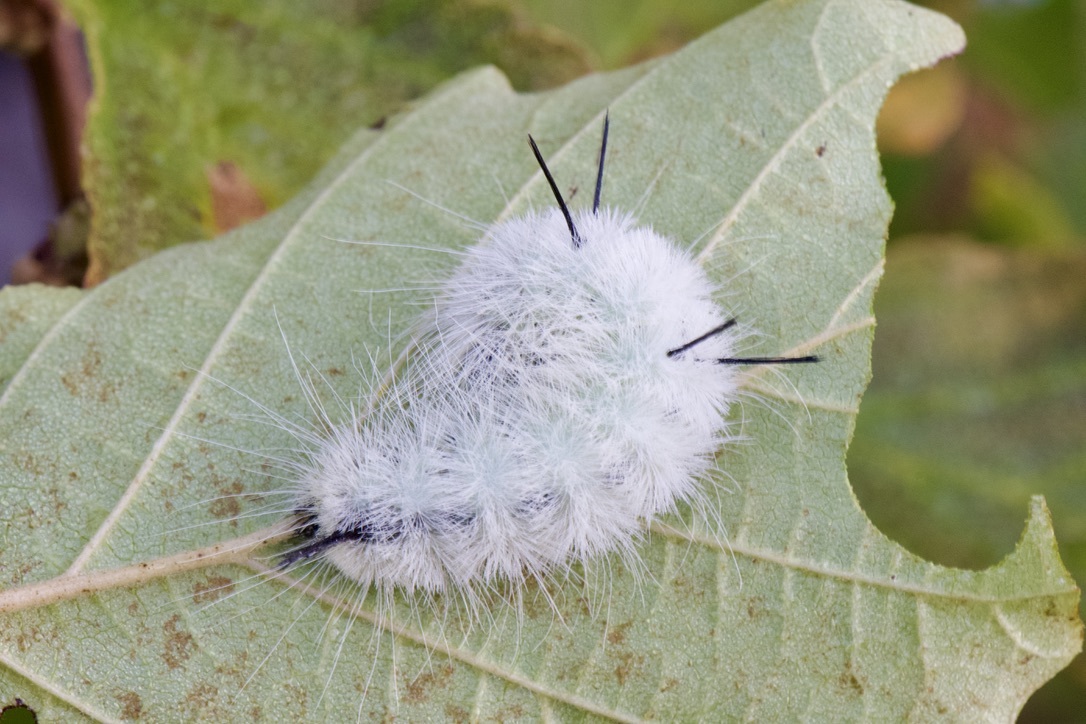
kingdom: Animalia
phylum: Arthropoda
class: Insecta
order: Lepidoptera
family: Noctuidae
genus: Acronicta
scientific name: Acronicta americana
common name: American dagger
